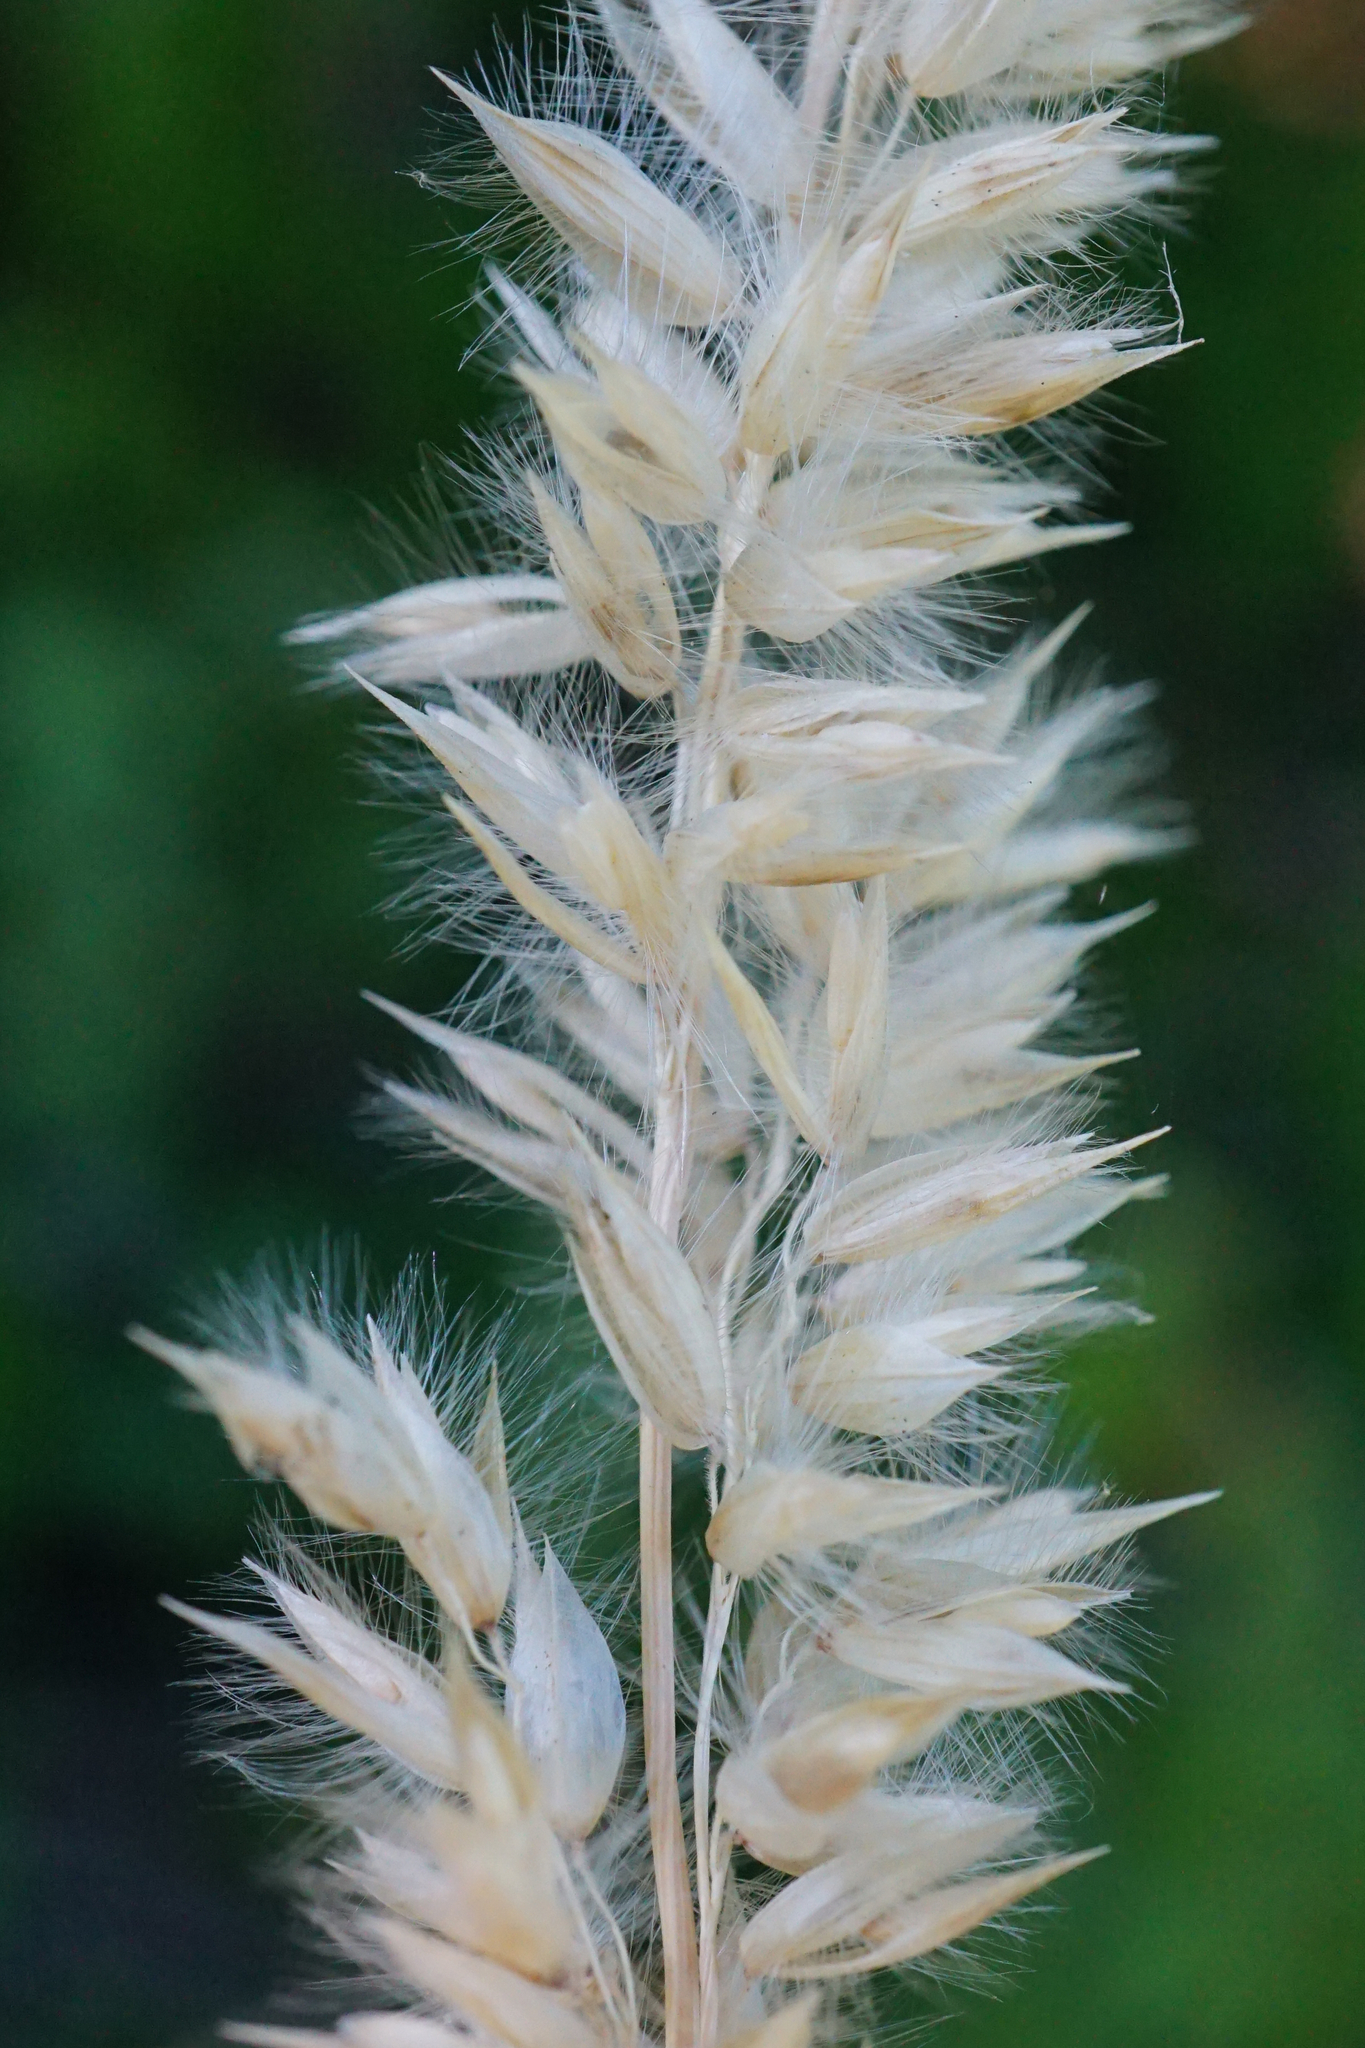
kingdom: Plantae
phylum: Tracheophyta
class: Liliopsida
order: Poales
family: Poaceae
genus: Melica
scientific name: Melica transsilvanica
